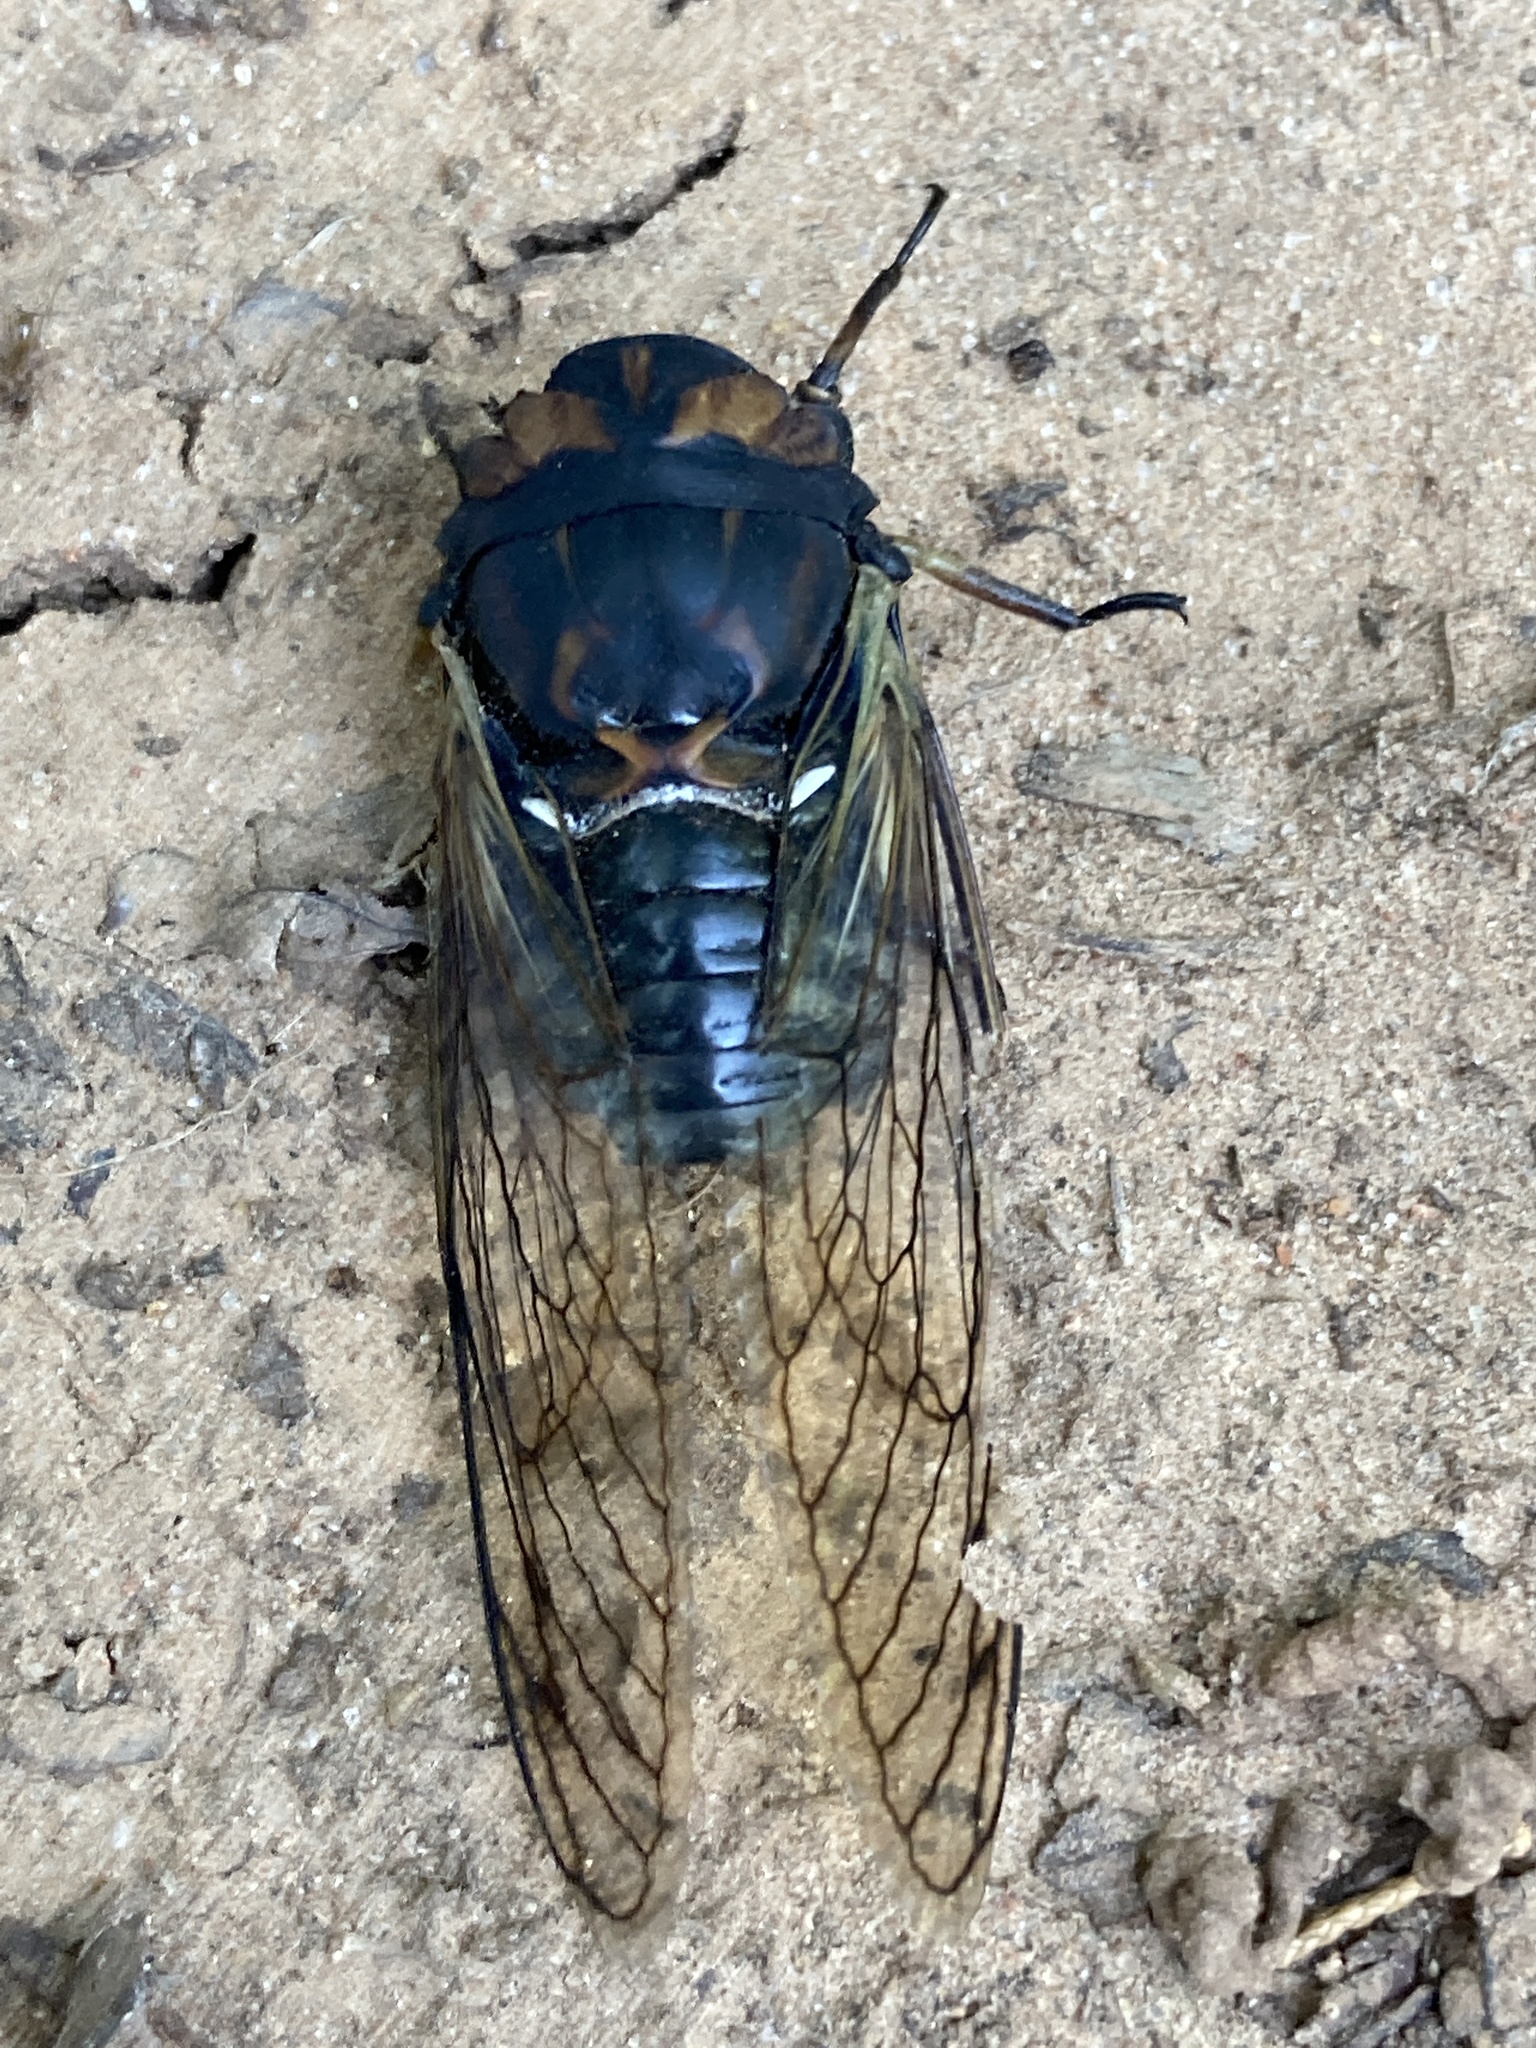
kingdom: Animalia
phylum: Arthropoda
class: Insecta
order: Hemiptera
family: Cicadidae
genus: Neotibicen
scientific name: Neotibicen lyricen
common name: Lyric cicada
